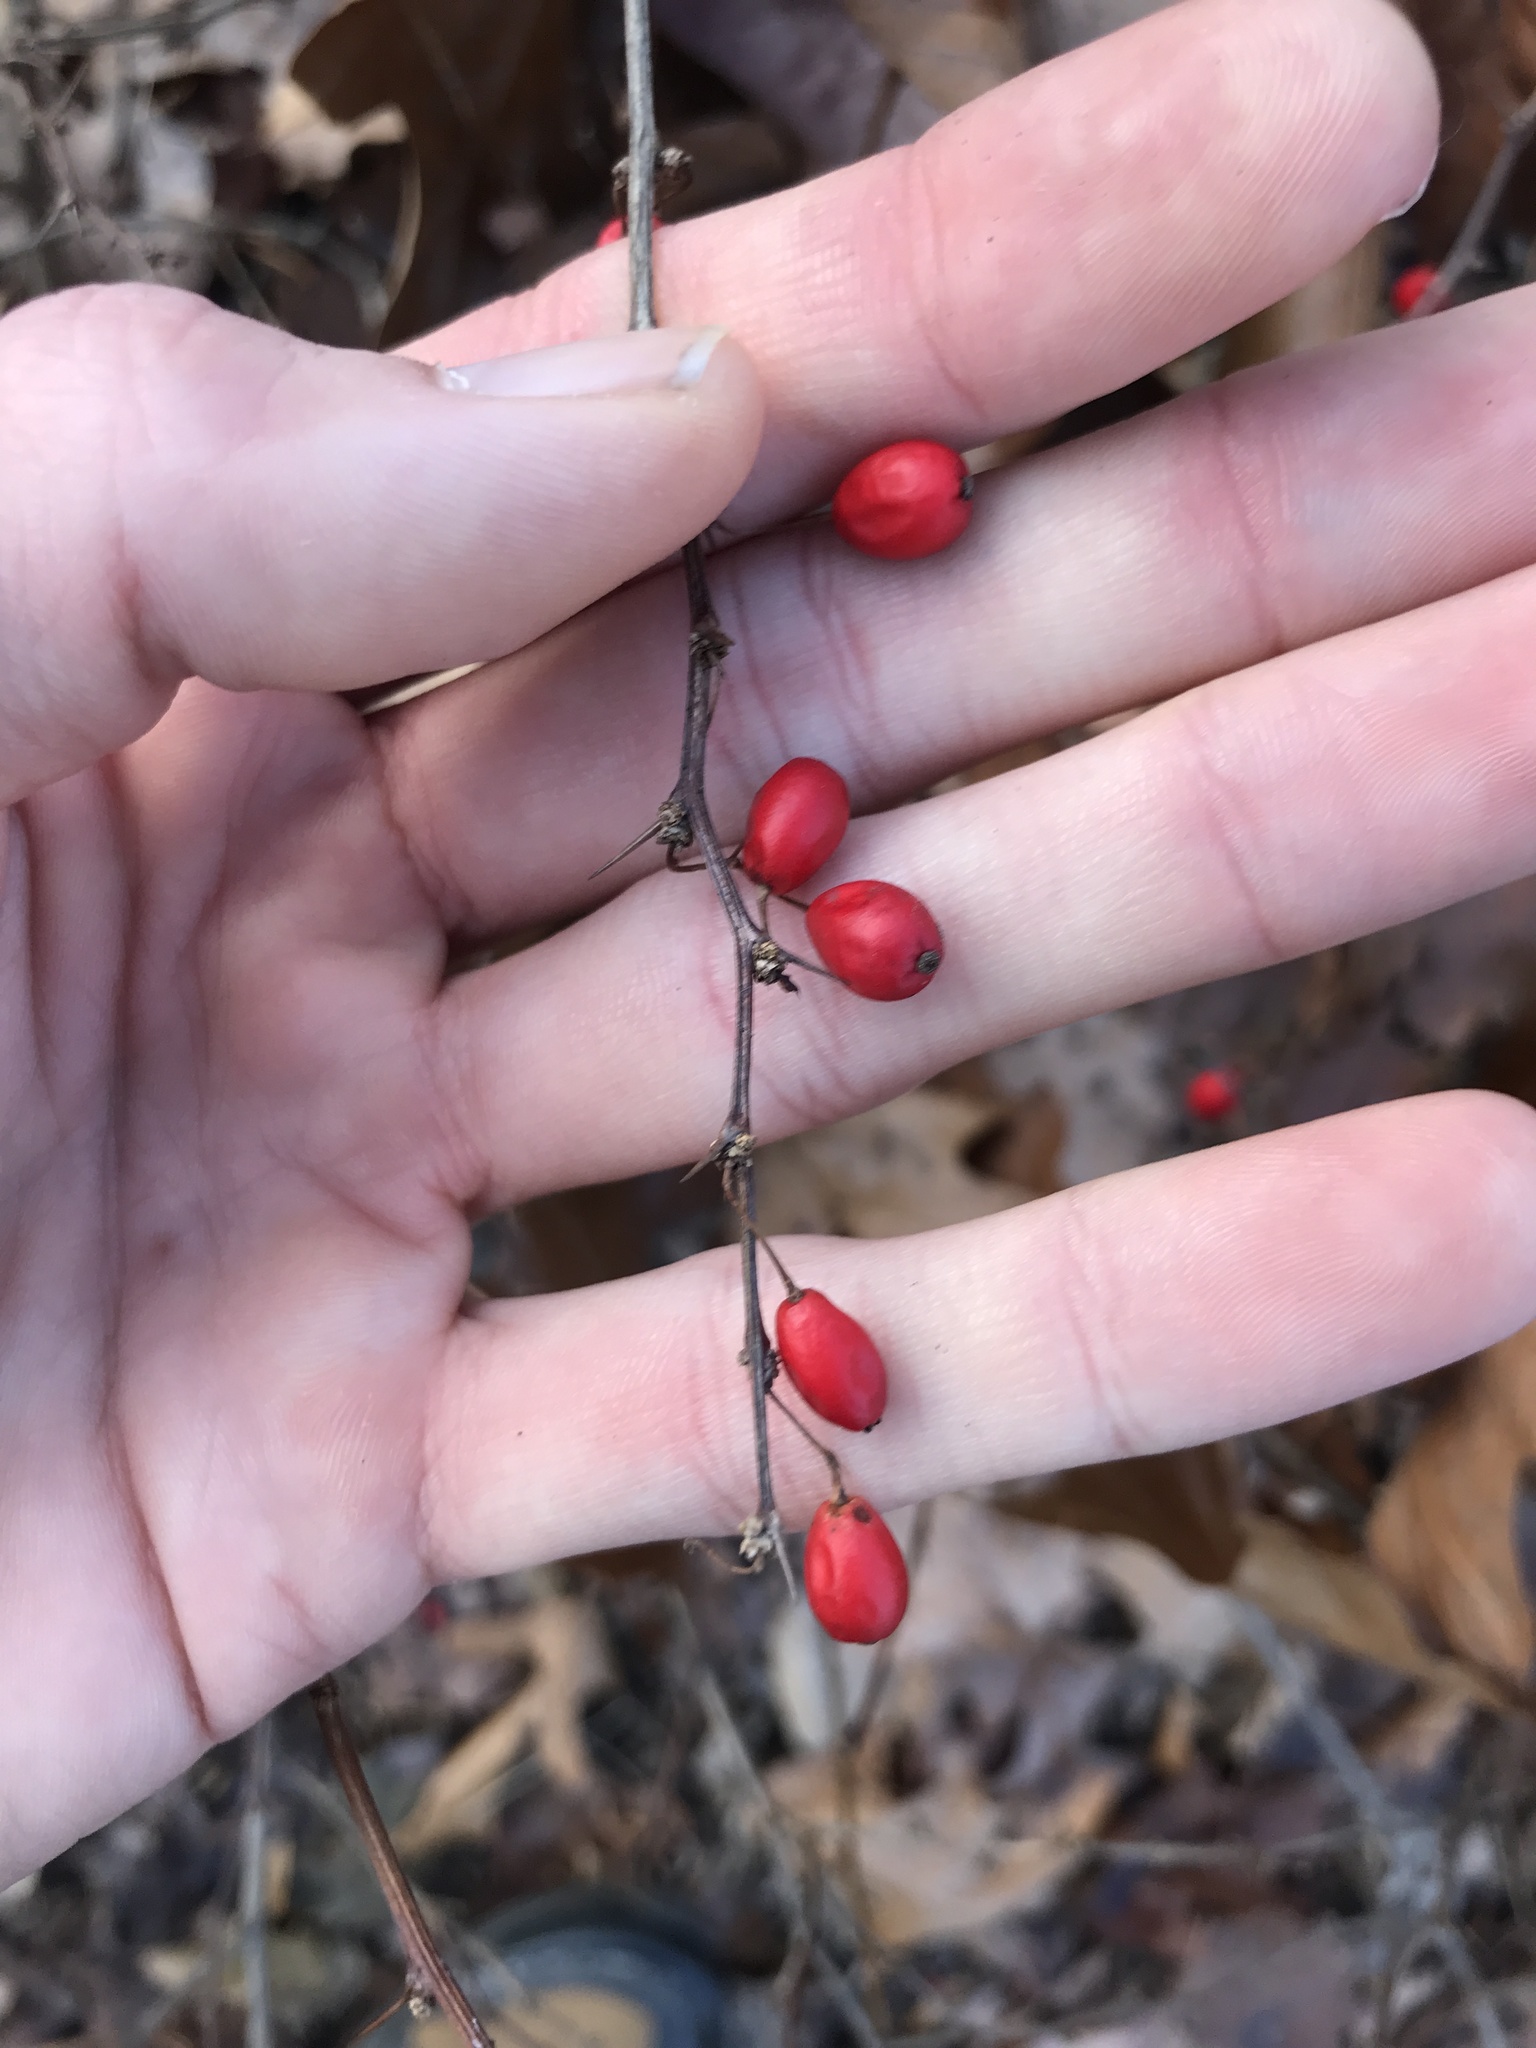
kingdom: Plantae
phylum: Tracheophyta
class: Magnoliopsida
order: Ranunculales
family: Berberidaceae
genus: Berberis
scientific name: Berberis thunbergii
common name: Japanese barberry
